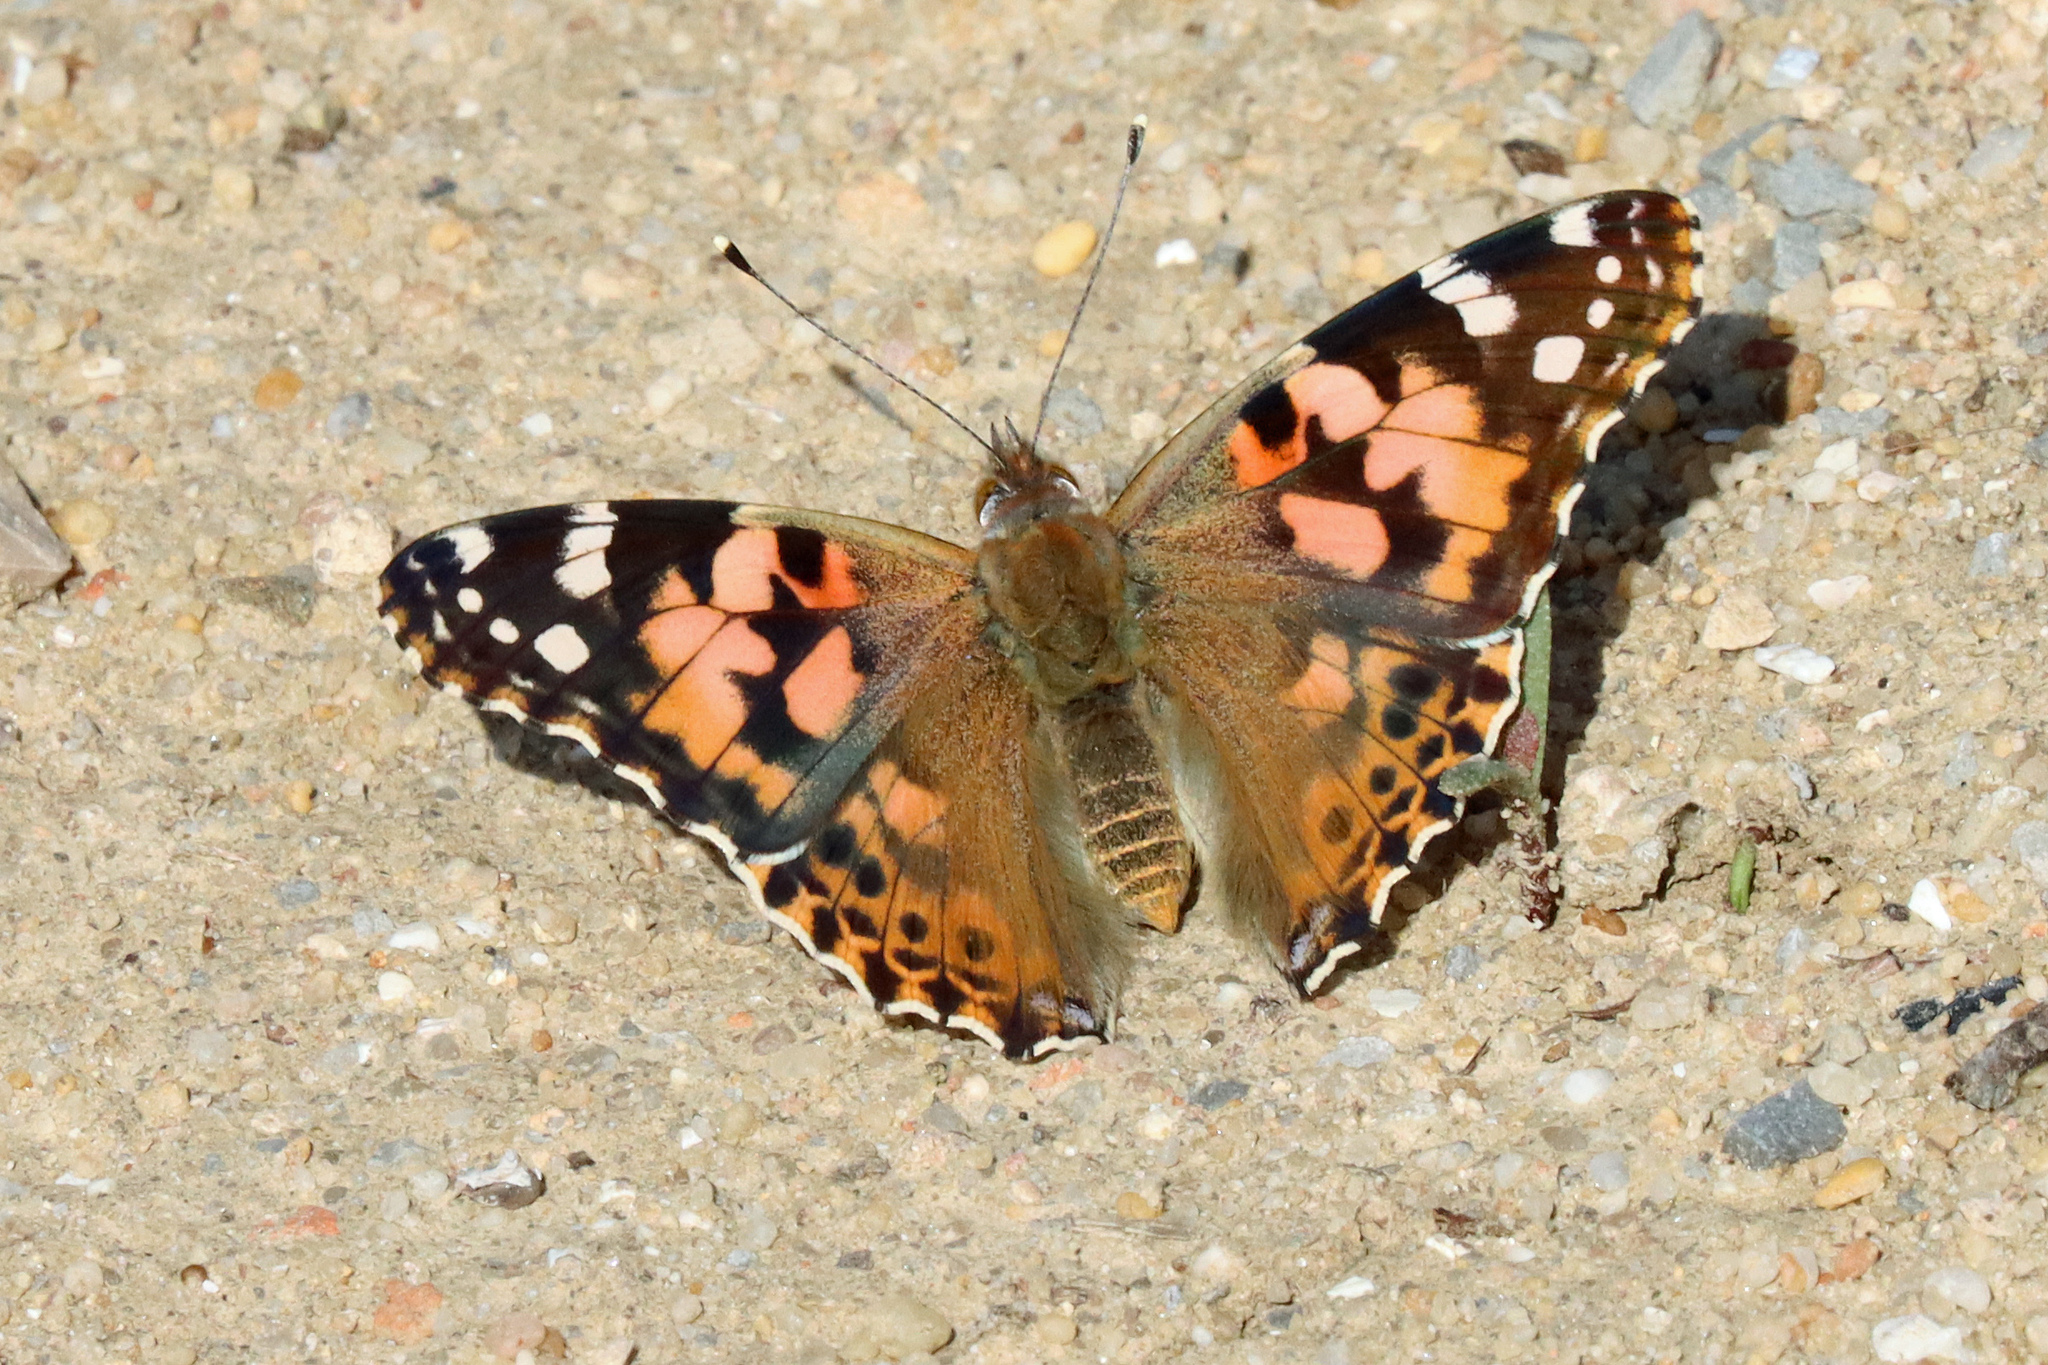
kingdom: Animalia
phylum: Arthropoda
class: Insecta
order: Lepidoptera
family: Nymphalidae
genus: Vanessa
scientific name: Vanessa cardui
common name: Painted lady
